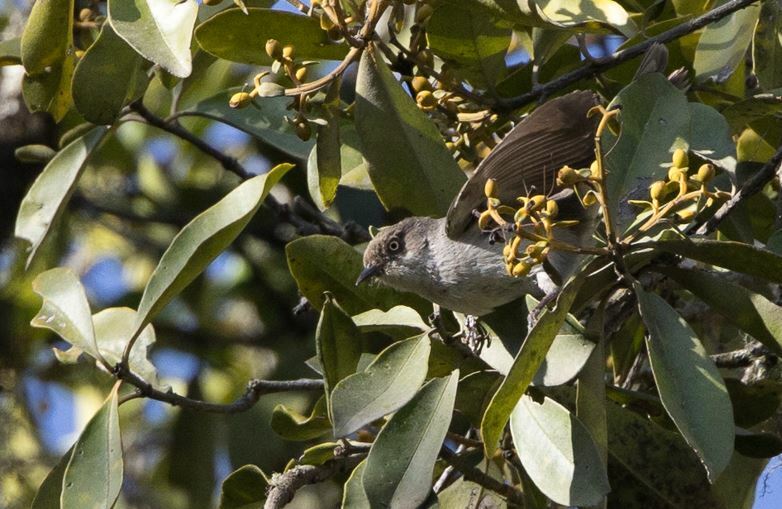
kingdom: Animalia
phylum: Chordata
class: Aves
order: Passeriformes
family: Thraupidae
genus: Pseudospingus
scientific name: Pseudospingus xanthophthalmus
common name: Drab hemispingus
